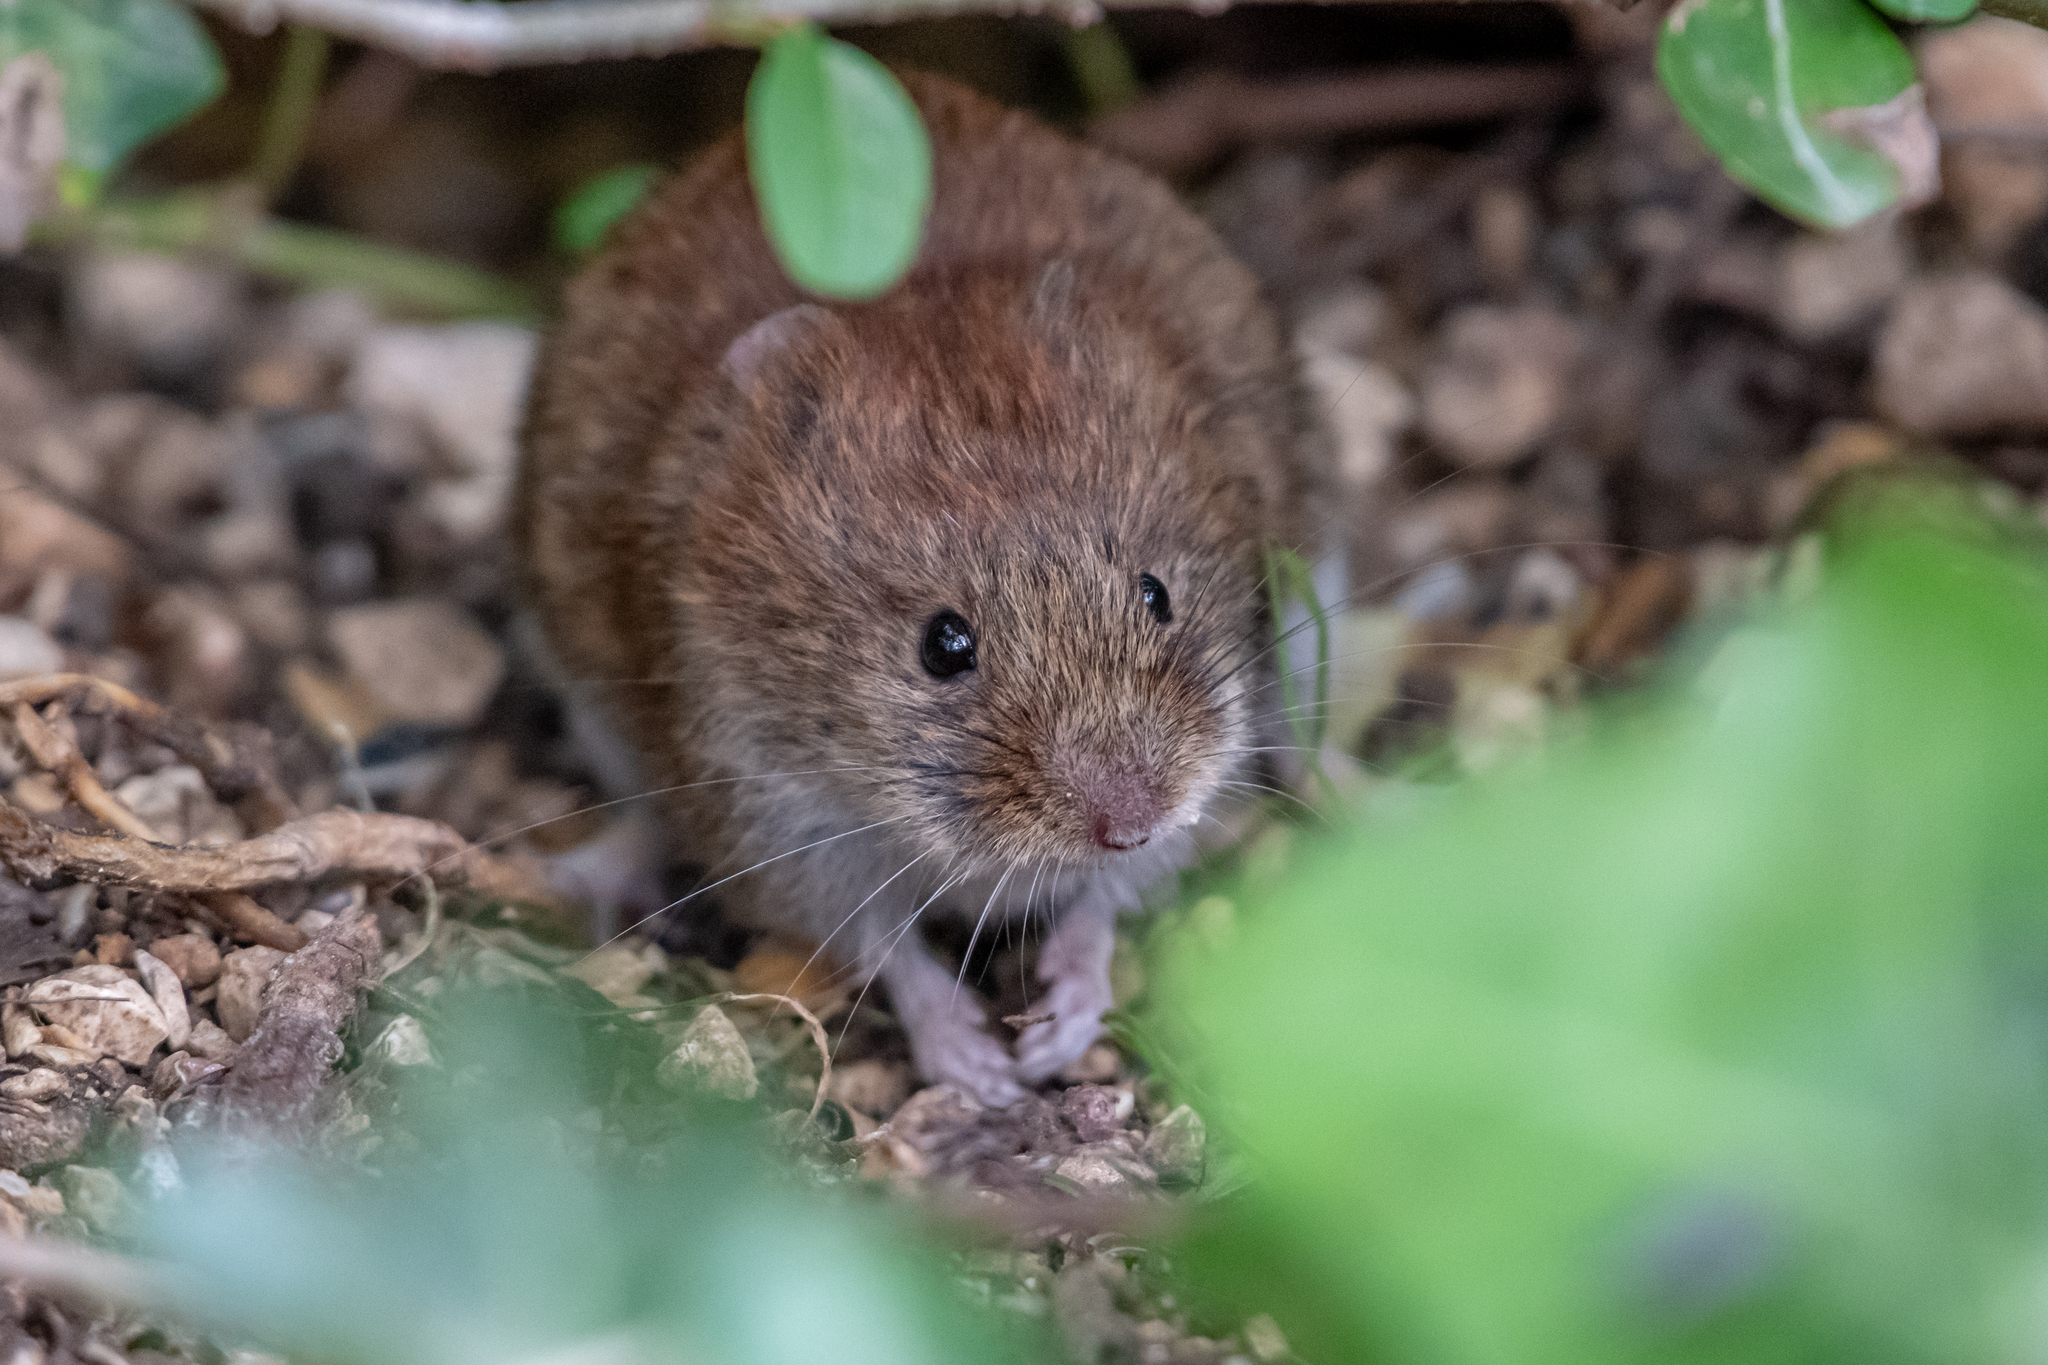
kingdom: Animalia
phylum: Chordata
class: Mammalia
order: Rodentia
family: Cricetidae
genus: Myodes
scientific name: Myodes glareolus
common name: Bank vole
